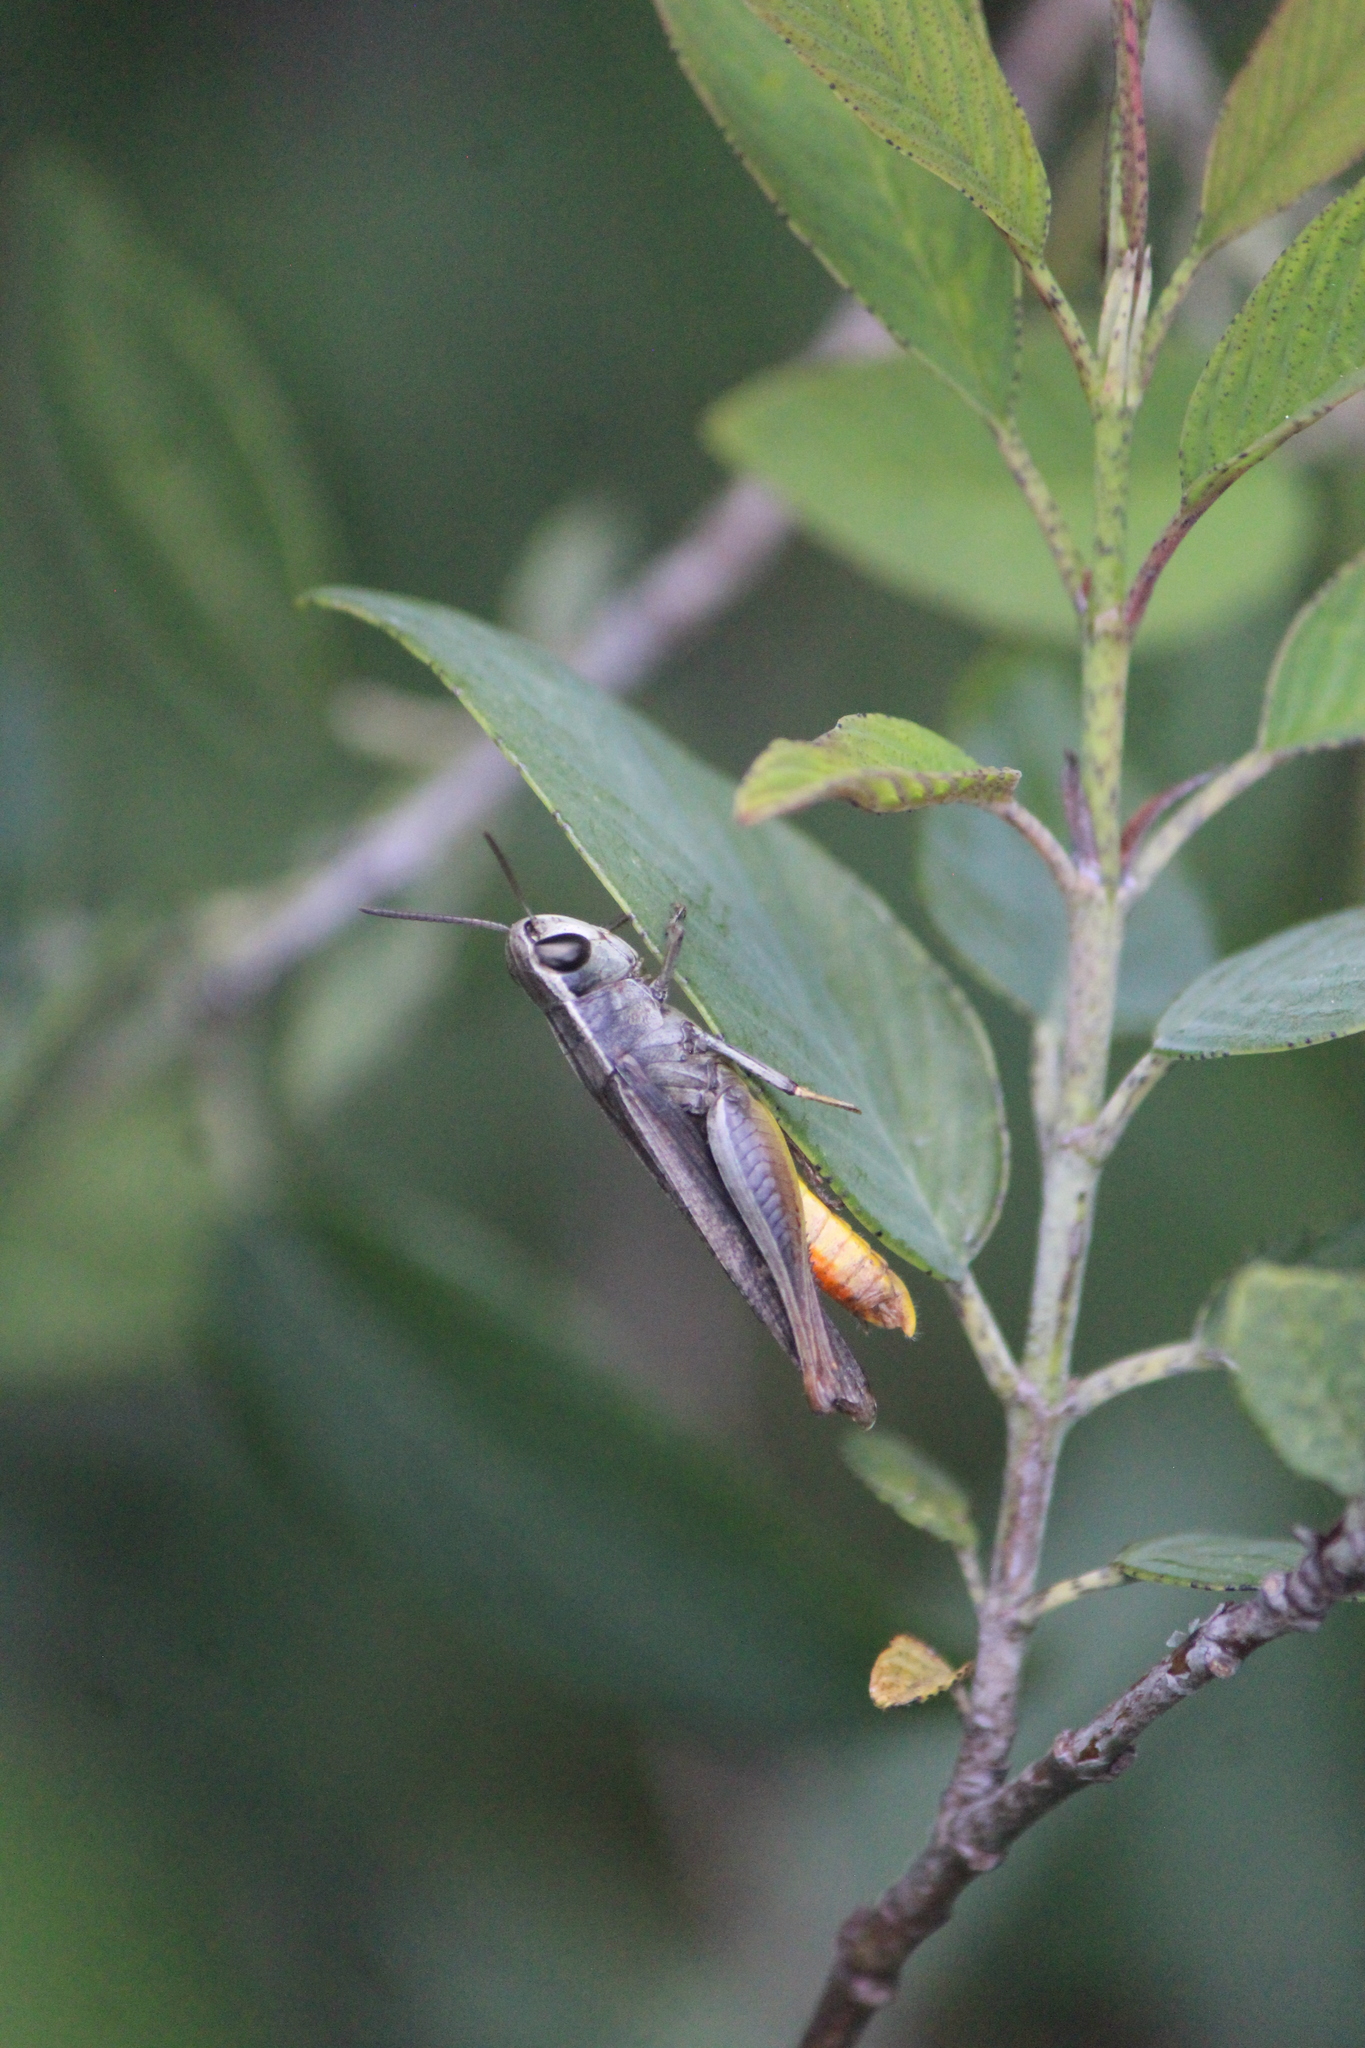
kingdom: Animalia
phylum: Arthropoda
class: Insecta
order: Orthoptera
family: Acrididae
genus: Amblytropidia
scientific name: Amblytropidia mysteca
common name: Brown winter grasshopper
